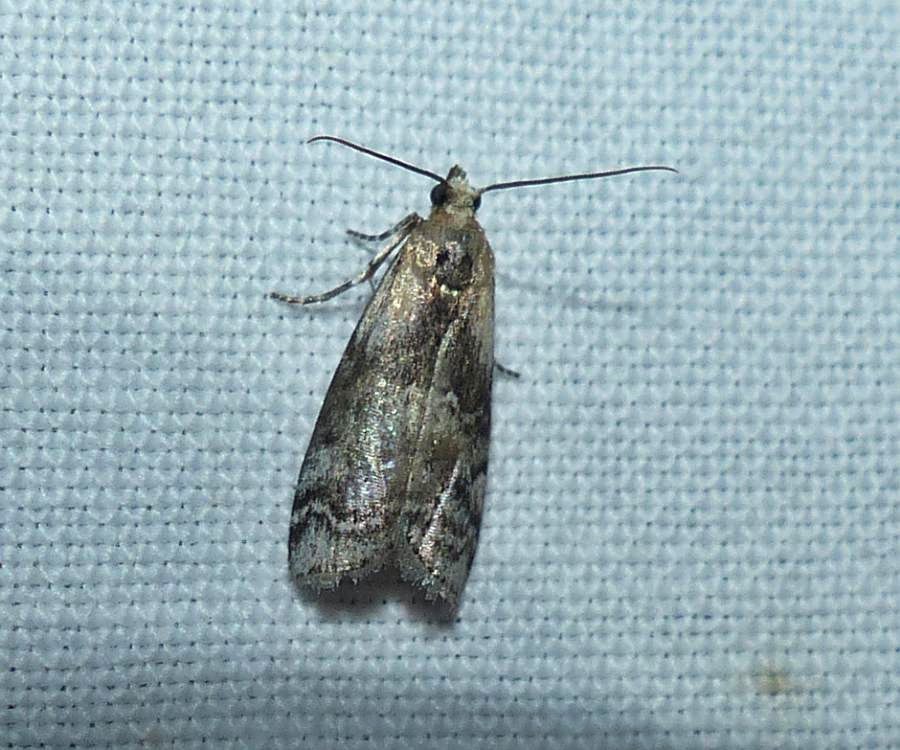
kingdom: Animalia
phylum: Arthropoda
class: Insecta
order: Lepidoptera
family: Pyralidae
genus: Glyptocera
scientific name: Glyptocera consobrinella
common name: Viburnum glyptocera moth
